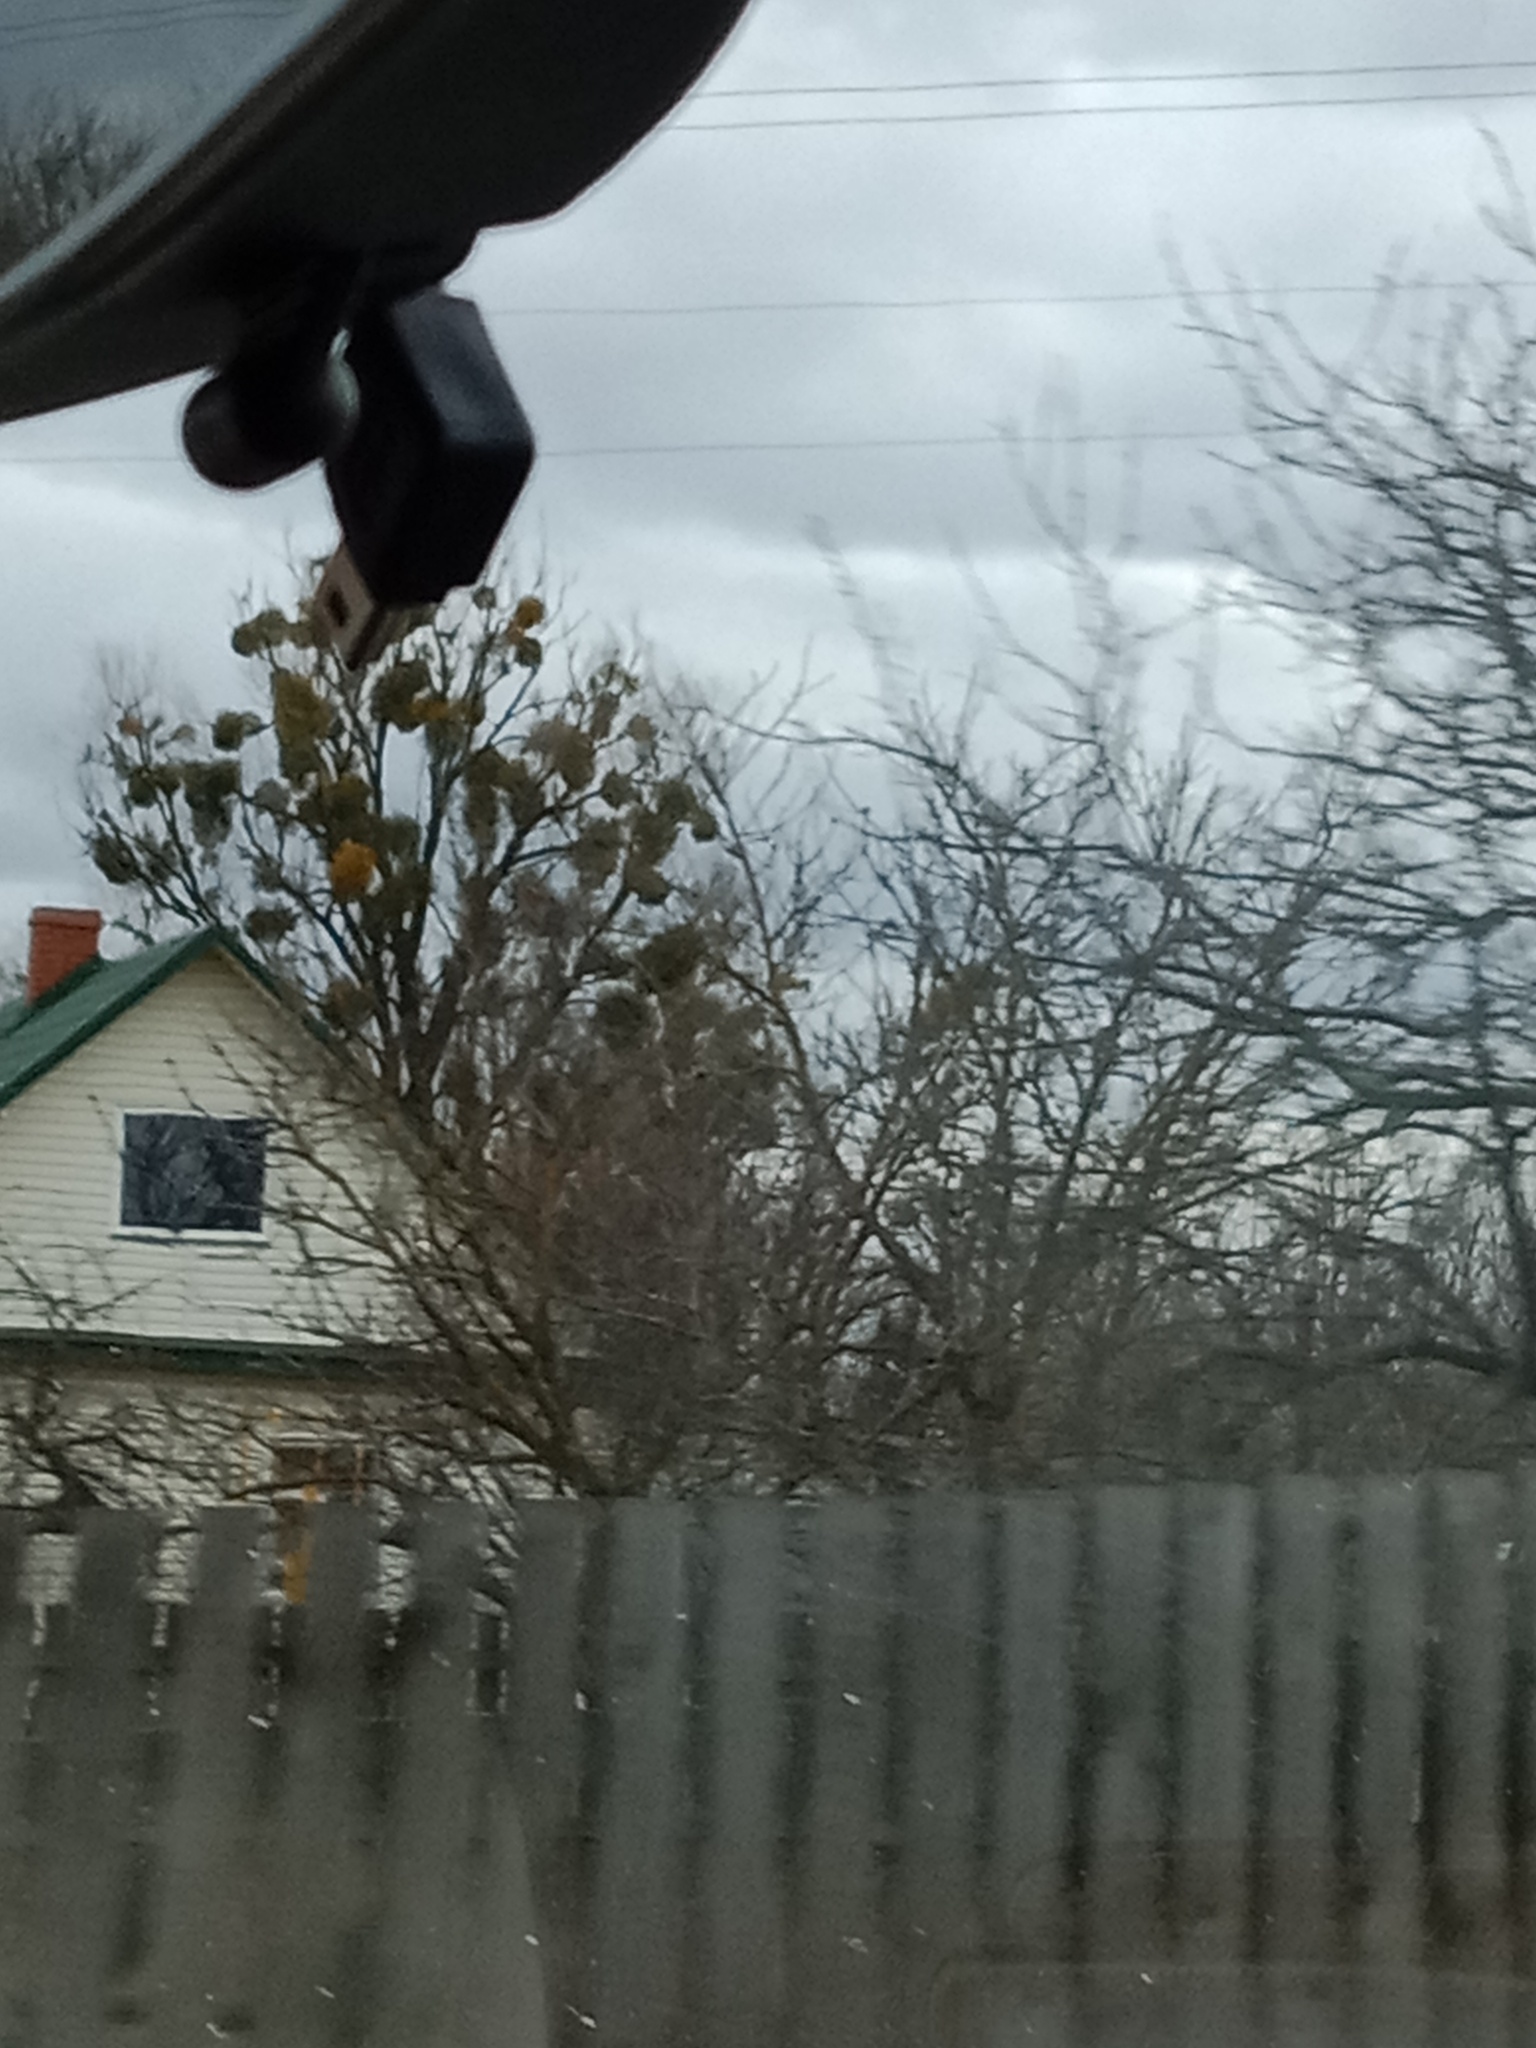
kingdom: Plantae
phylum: Tracheophyta
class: Magnoliopsida
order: Santalales
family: Viscaceae
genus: Viscum
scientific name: Viscum album
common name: Mistletoe
